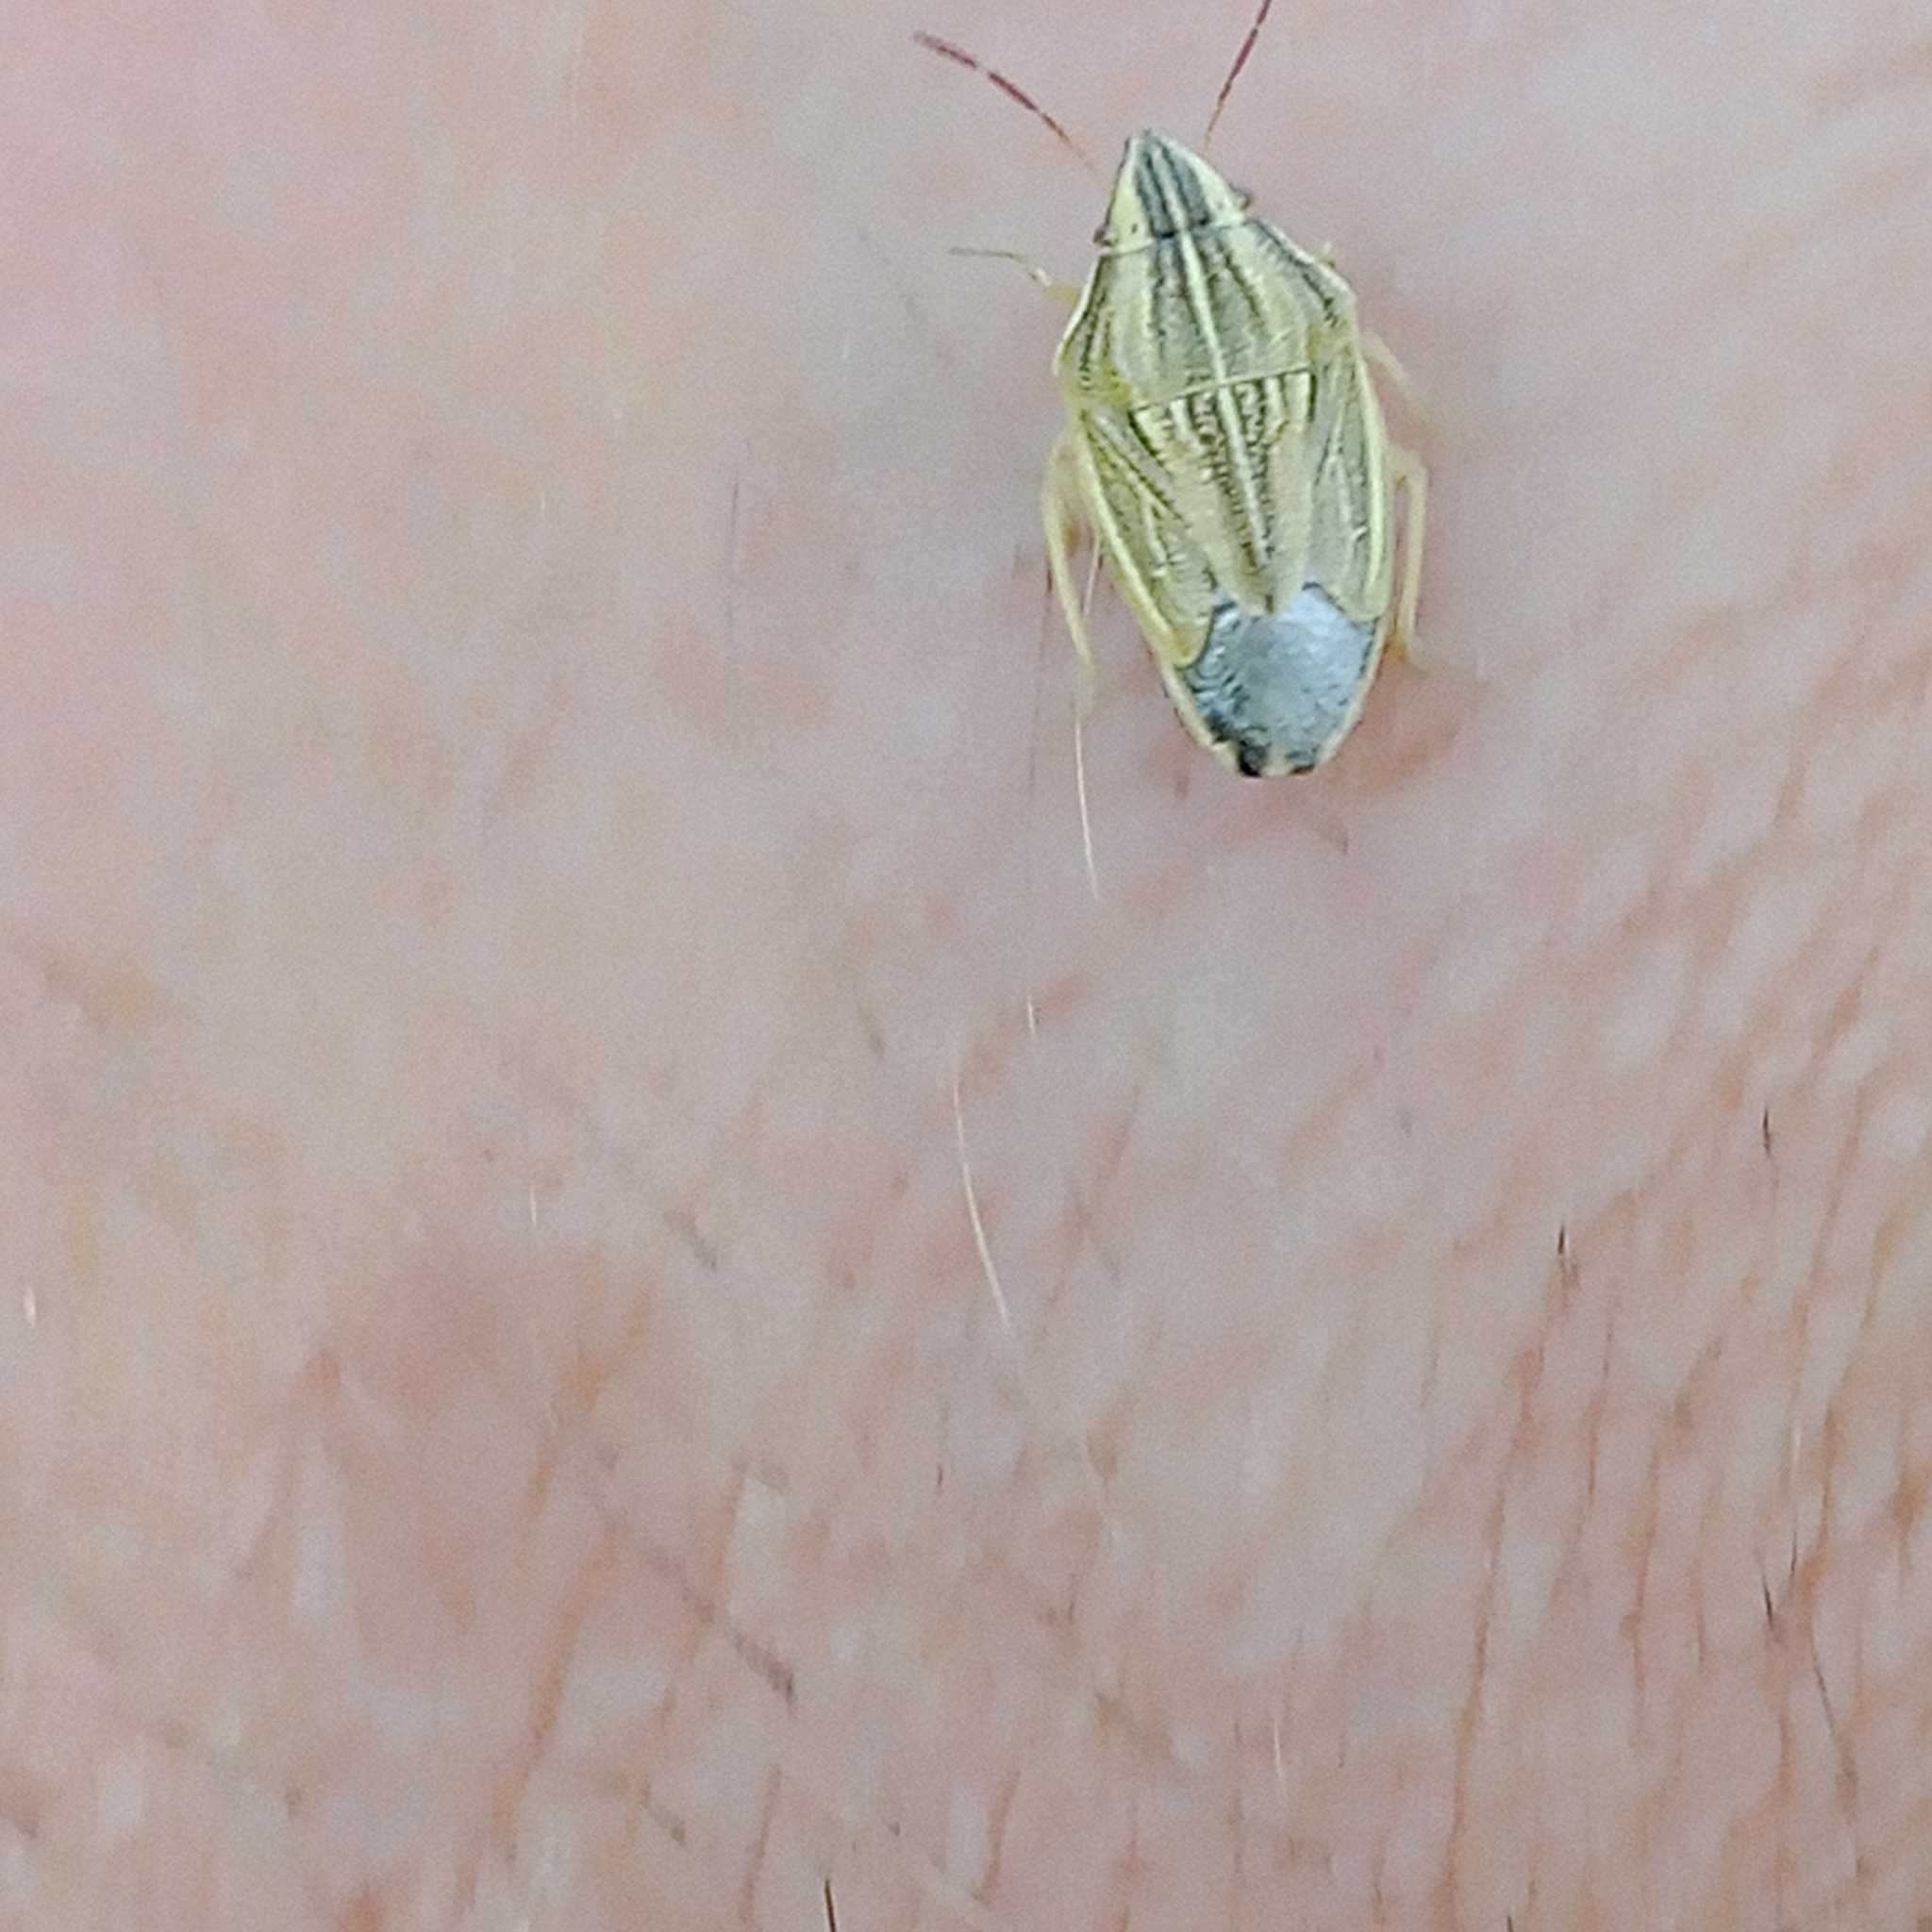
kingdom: Animalia
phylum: Arthropoda
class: Insecta
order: Hemiptera
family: Pentatomidae
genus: Aelia
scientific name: Aelia acuminata
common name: Bishop's mitre
